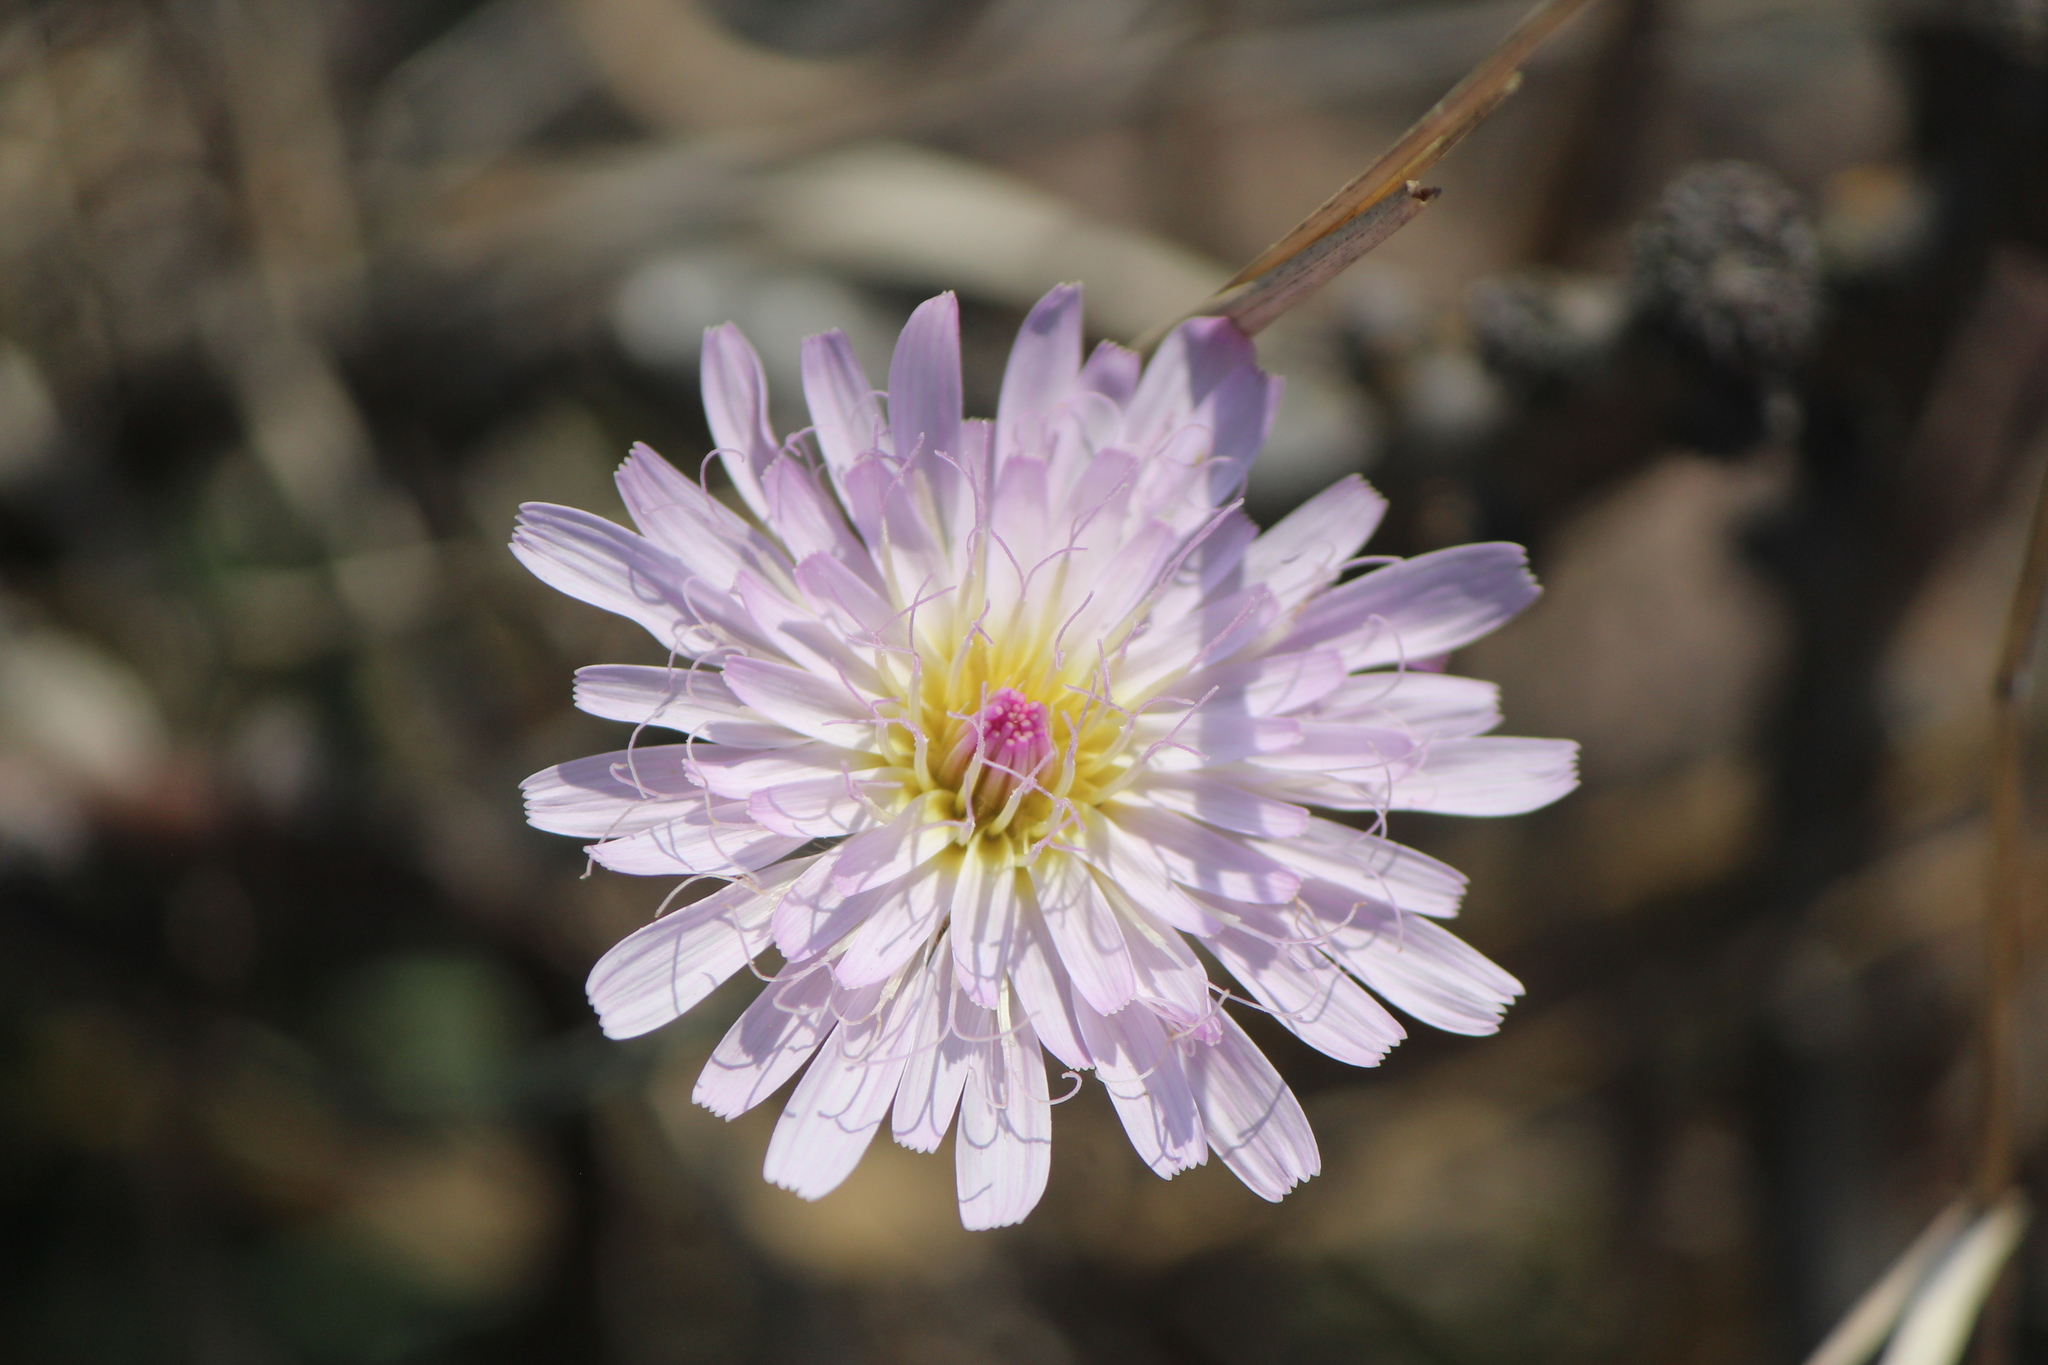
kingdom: Plantae
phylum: Tracheophyta
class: Magnoliopsida
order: Asterales
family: Asteraceae
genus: Pinaropappus
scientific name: Pinaropappus roseus
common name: Rock-lettuce
